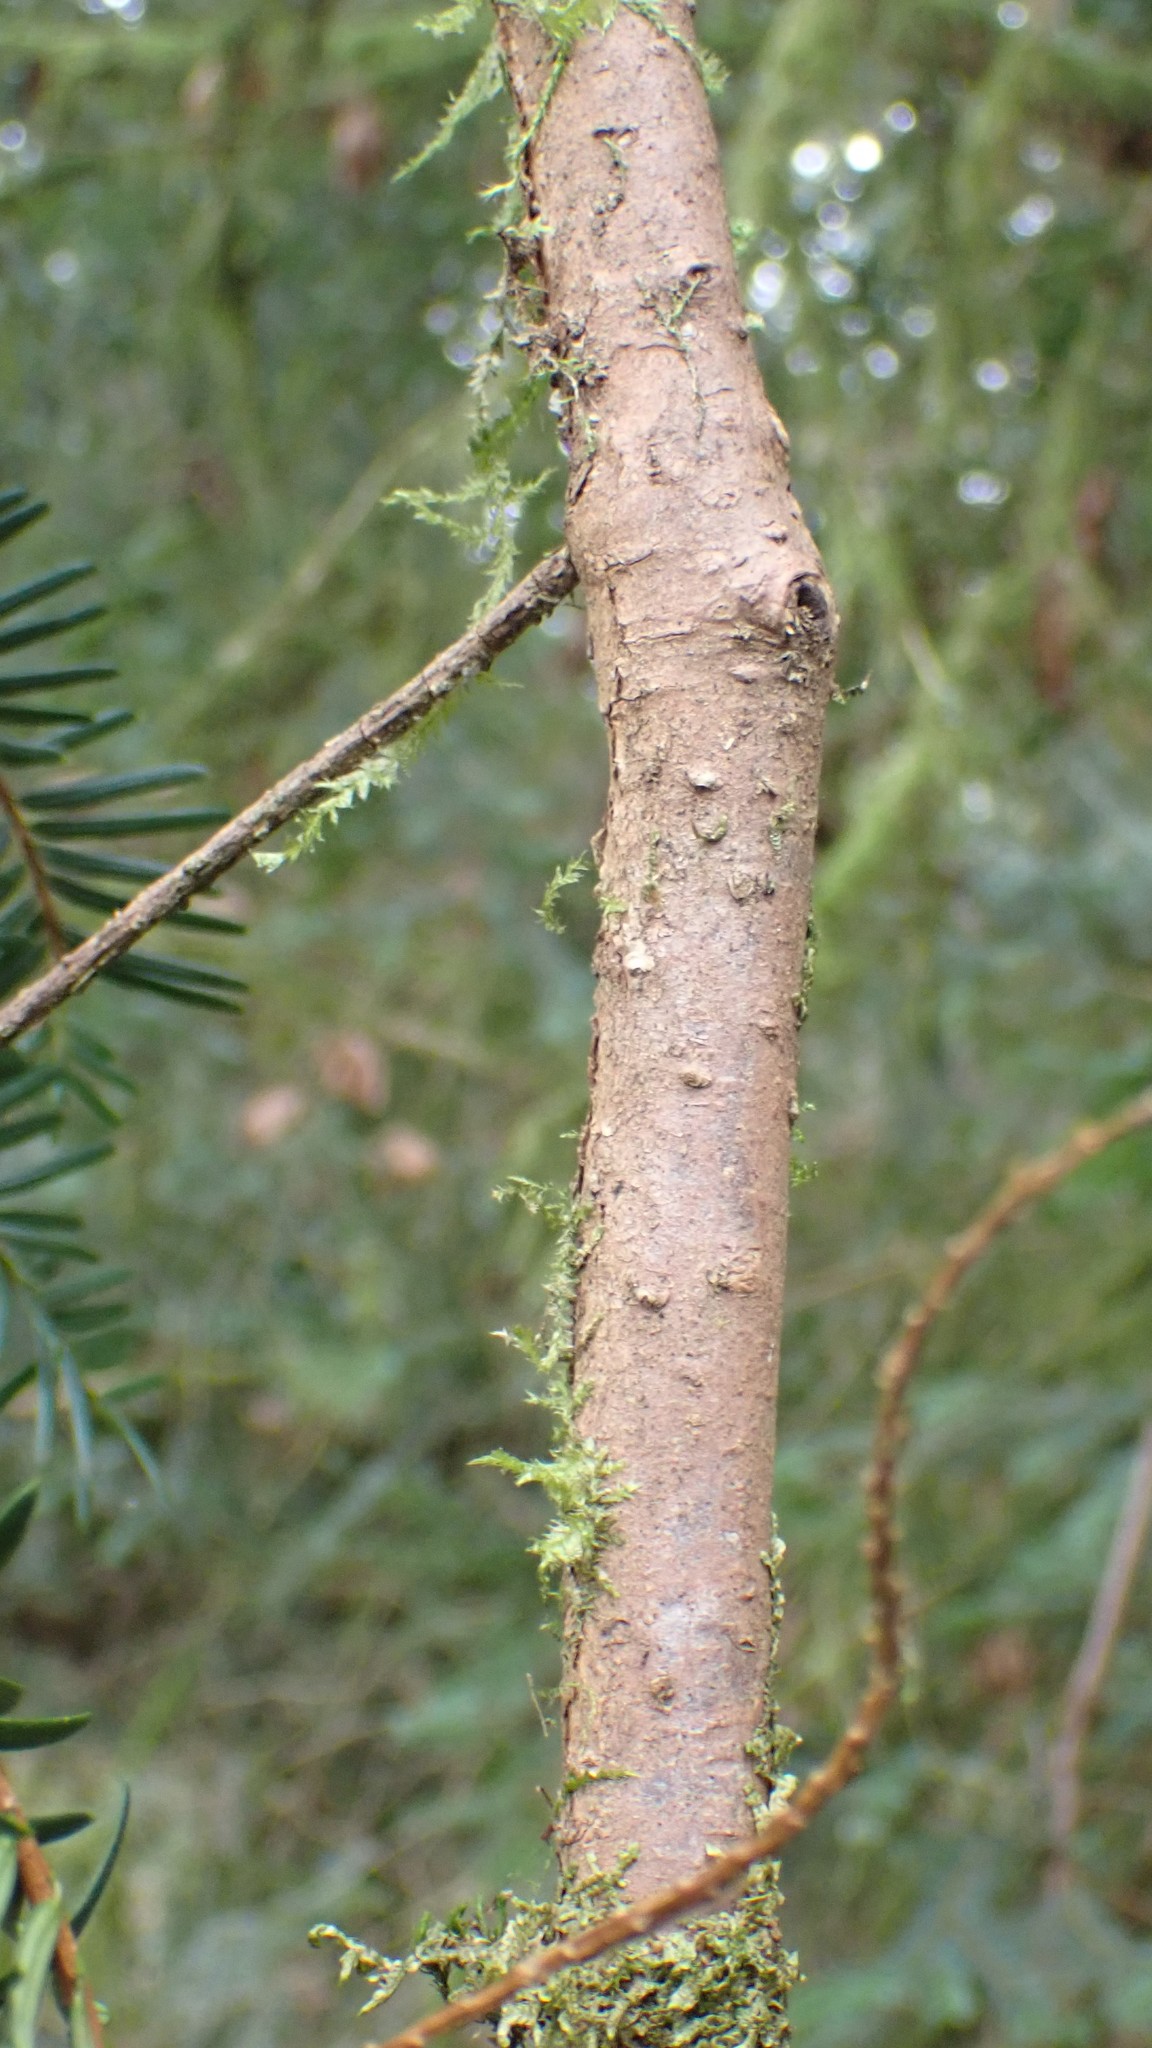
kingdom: Plantae
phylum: Tracheophyta
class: Pinopsida
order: Pinales
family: Taxaceae
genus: Taxus
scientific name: Taxus brevifolia
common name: Pacific yew
